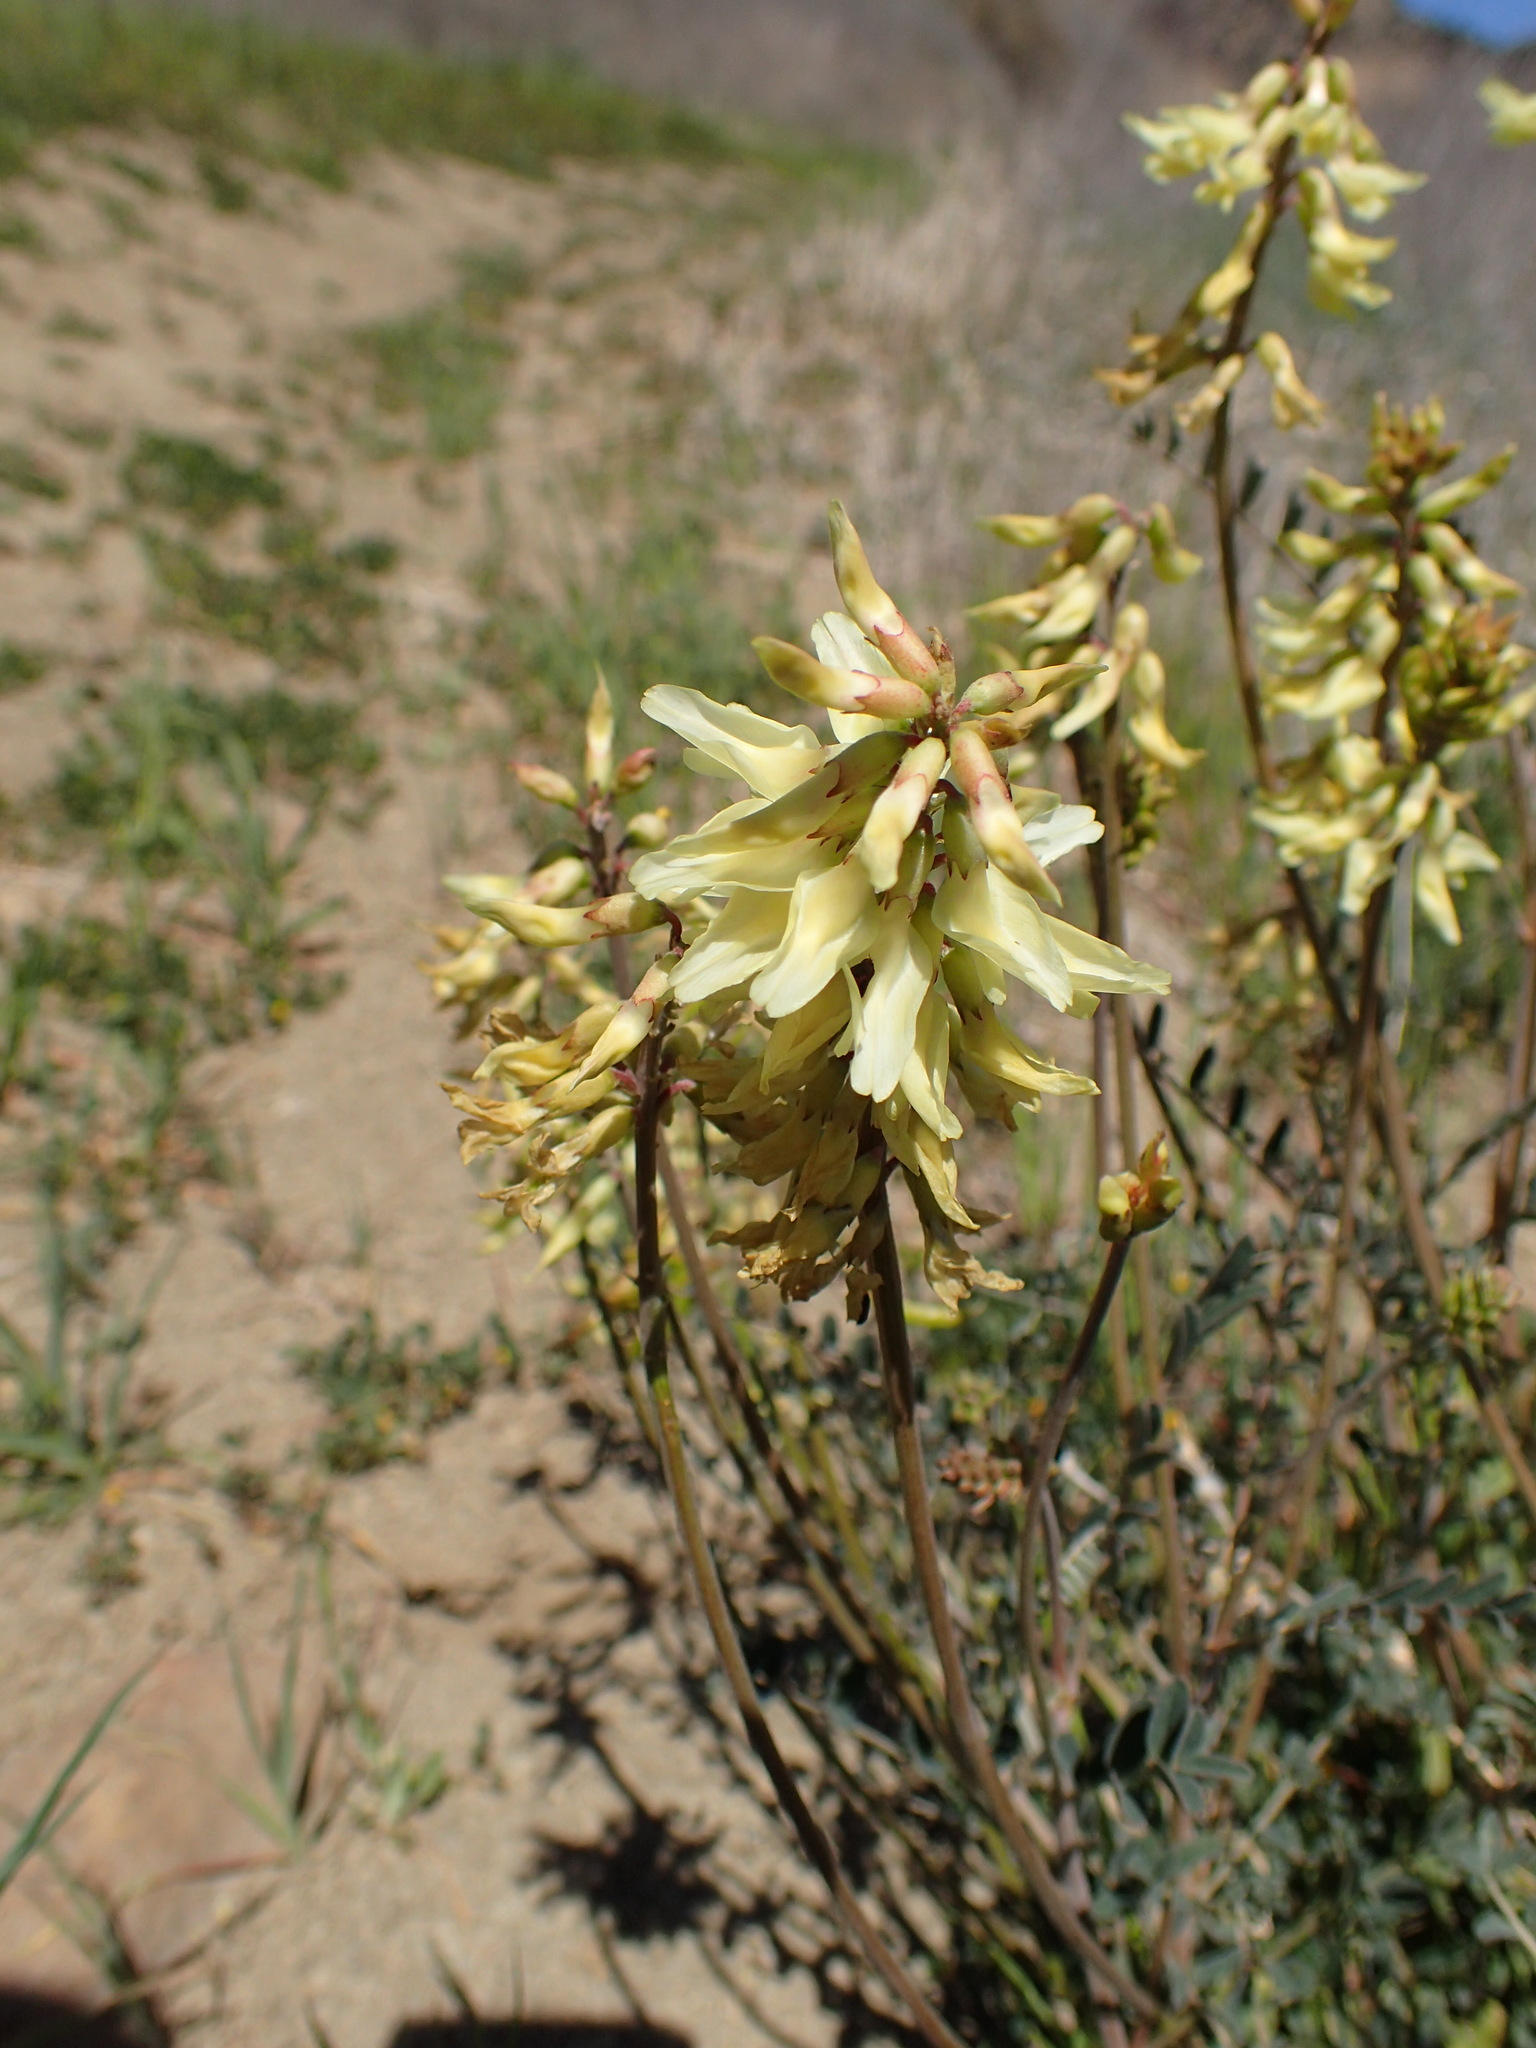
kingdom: Plantae
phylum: Tracheophyta
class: Magnoliopsida
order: Fabales
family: Fabaceae
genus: Astragalus
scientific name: Astragalus trichopodus
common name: Santa barbara milk-vetch
